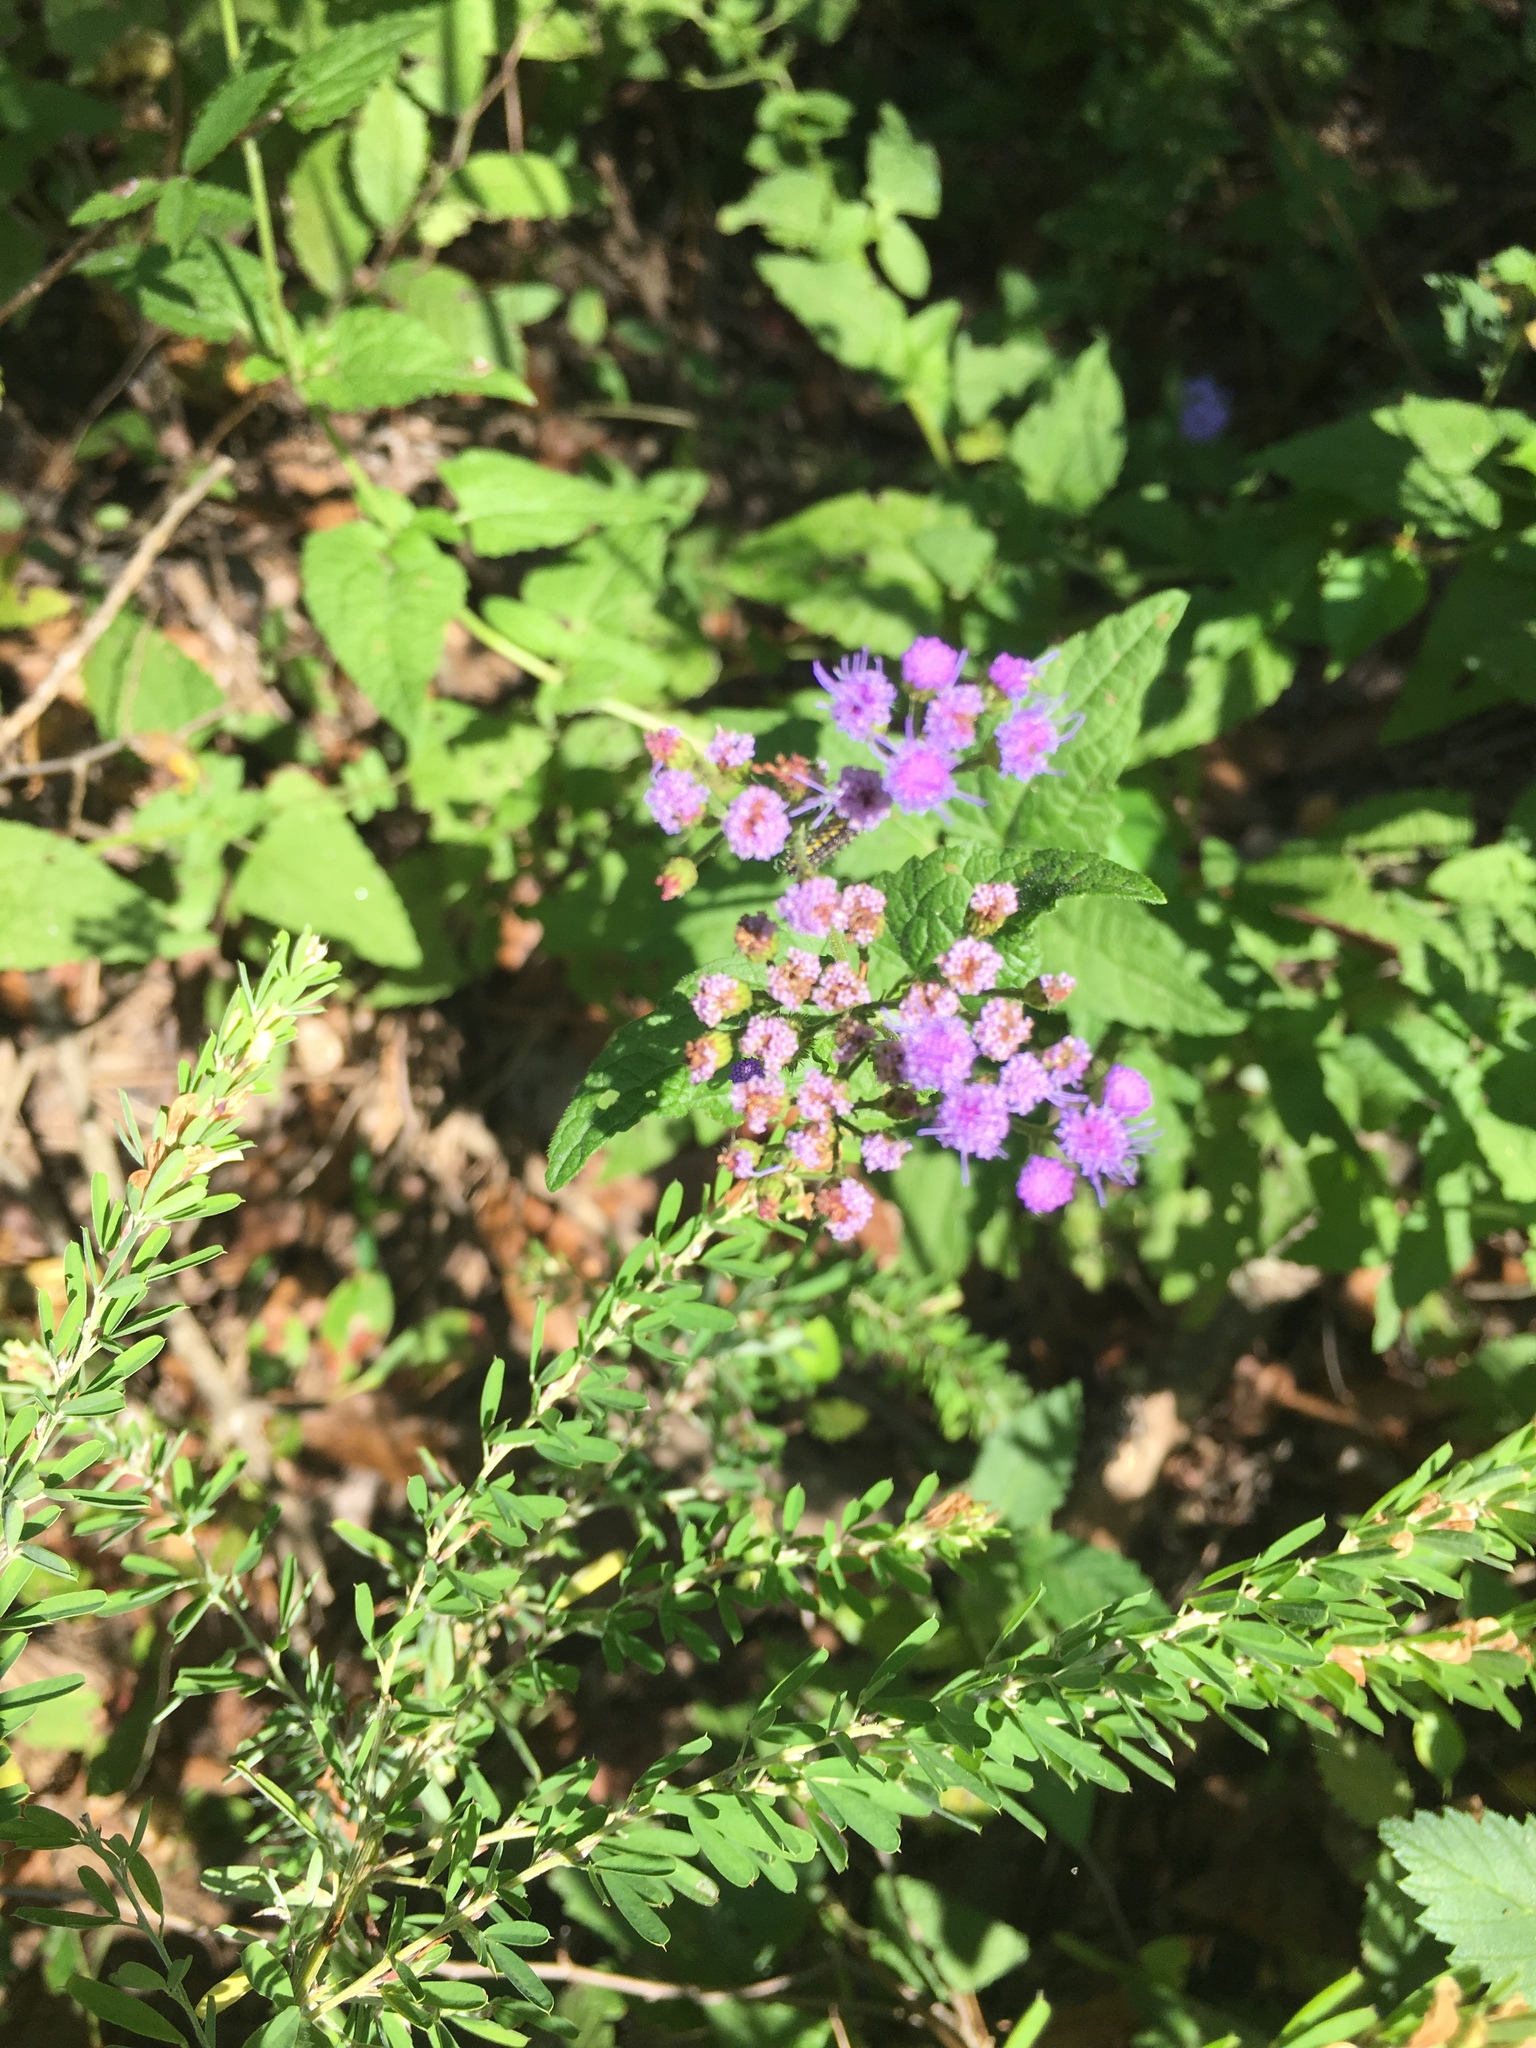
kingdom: Plantae
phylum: Tracheophyta
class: Magnoliopsida
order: Asterales
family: Asteraceae
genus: Conoclinium
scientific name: Conoclinium coelestinum
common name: Blue mistflower
